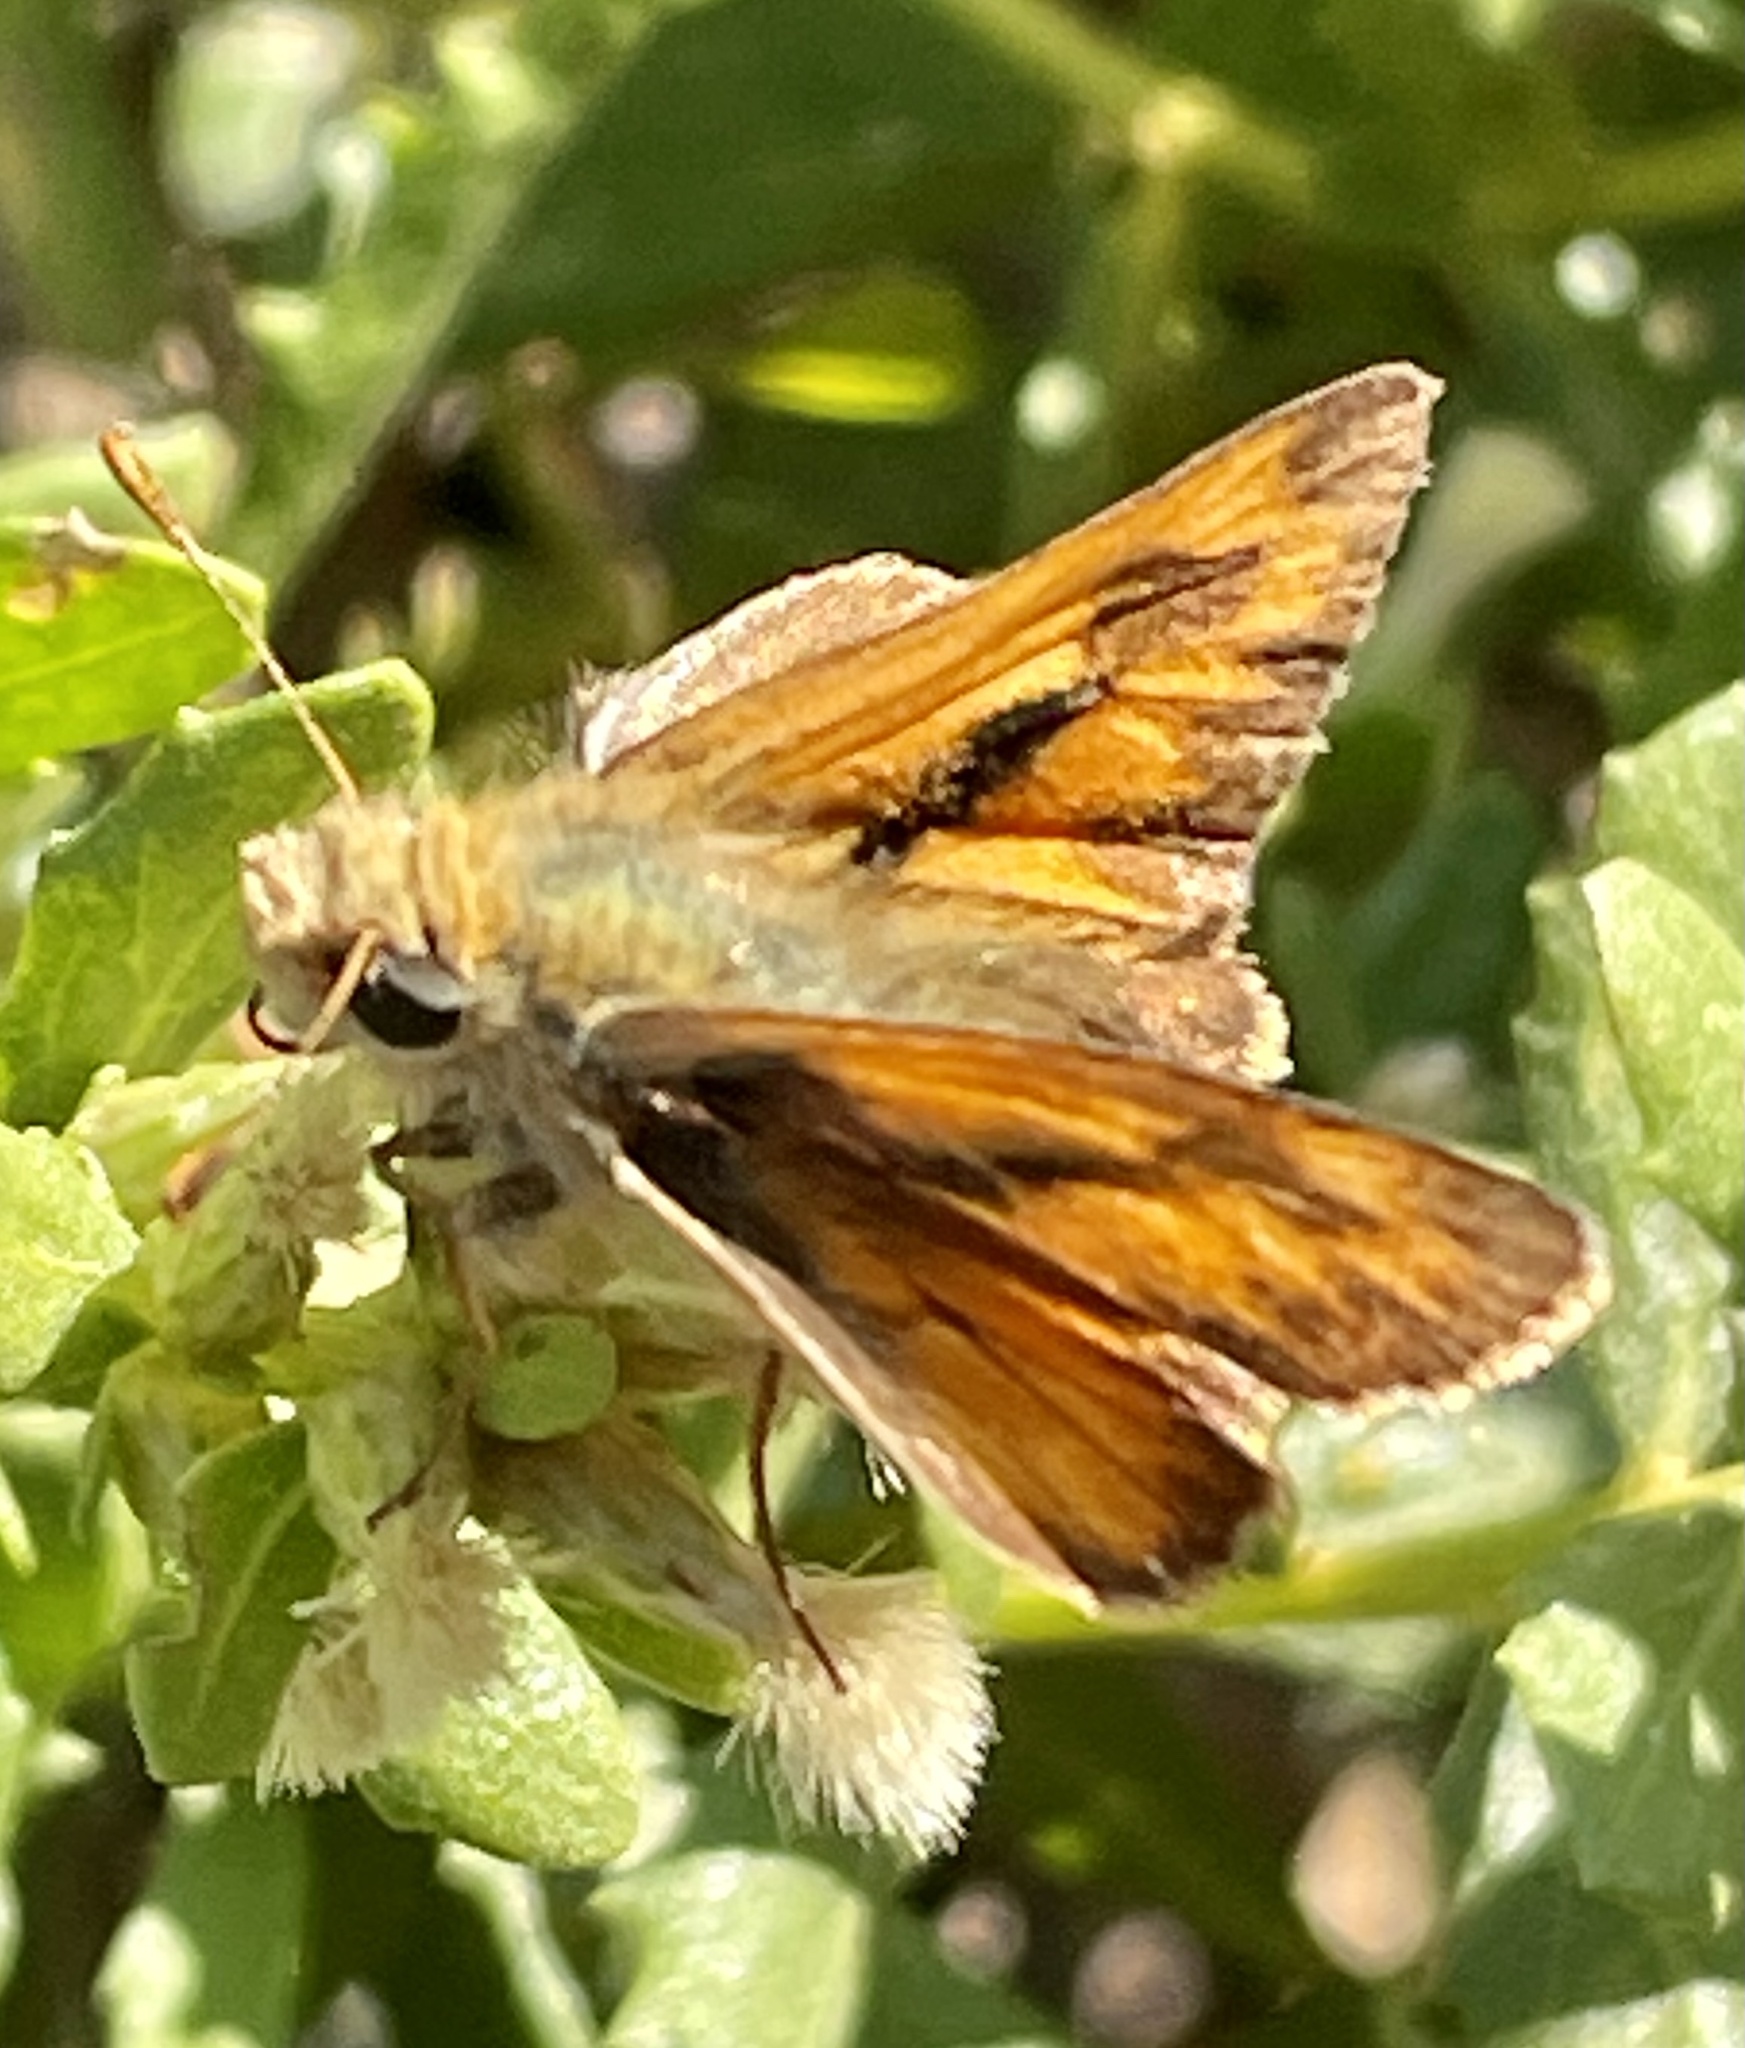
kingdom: Animalia
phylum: Arthropoda
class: Insecta
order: Lepidoptera
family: Hesperiidae
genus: Ochlodes
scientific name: Ochlodes sylvanoides
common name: Woodland skipper
